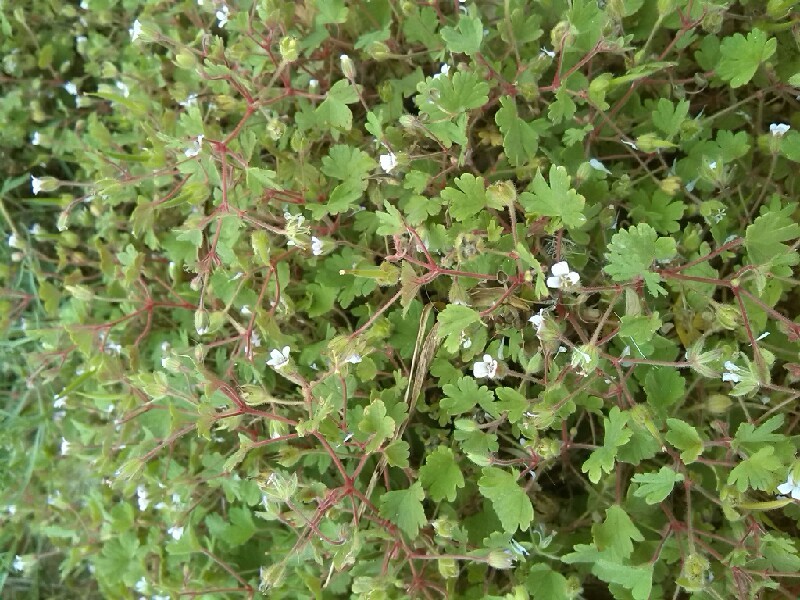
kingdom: Plantae
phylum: Tracheophyta
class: Magnoliopsida
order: Geraniales
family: Geraniaceae
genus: Geranium
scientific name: Geranium rotundifolium
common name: Round-leaved crane's-bill
